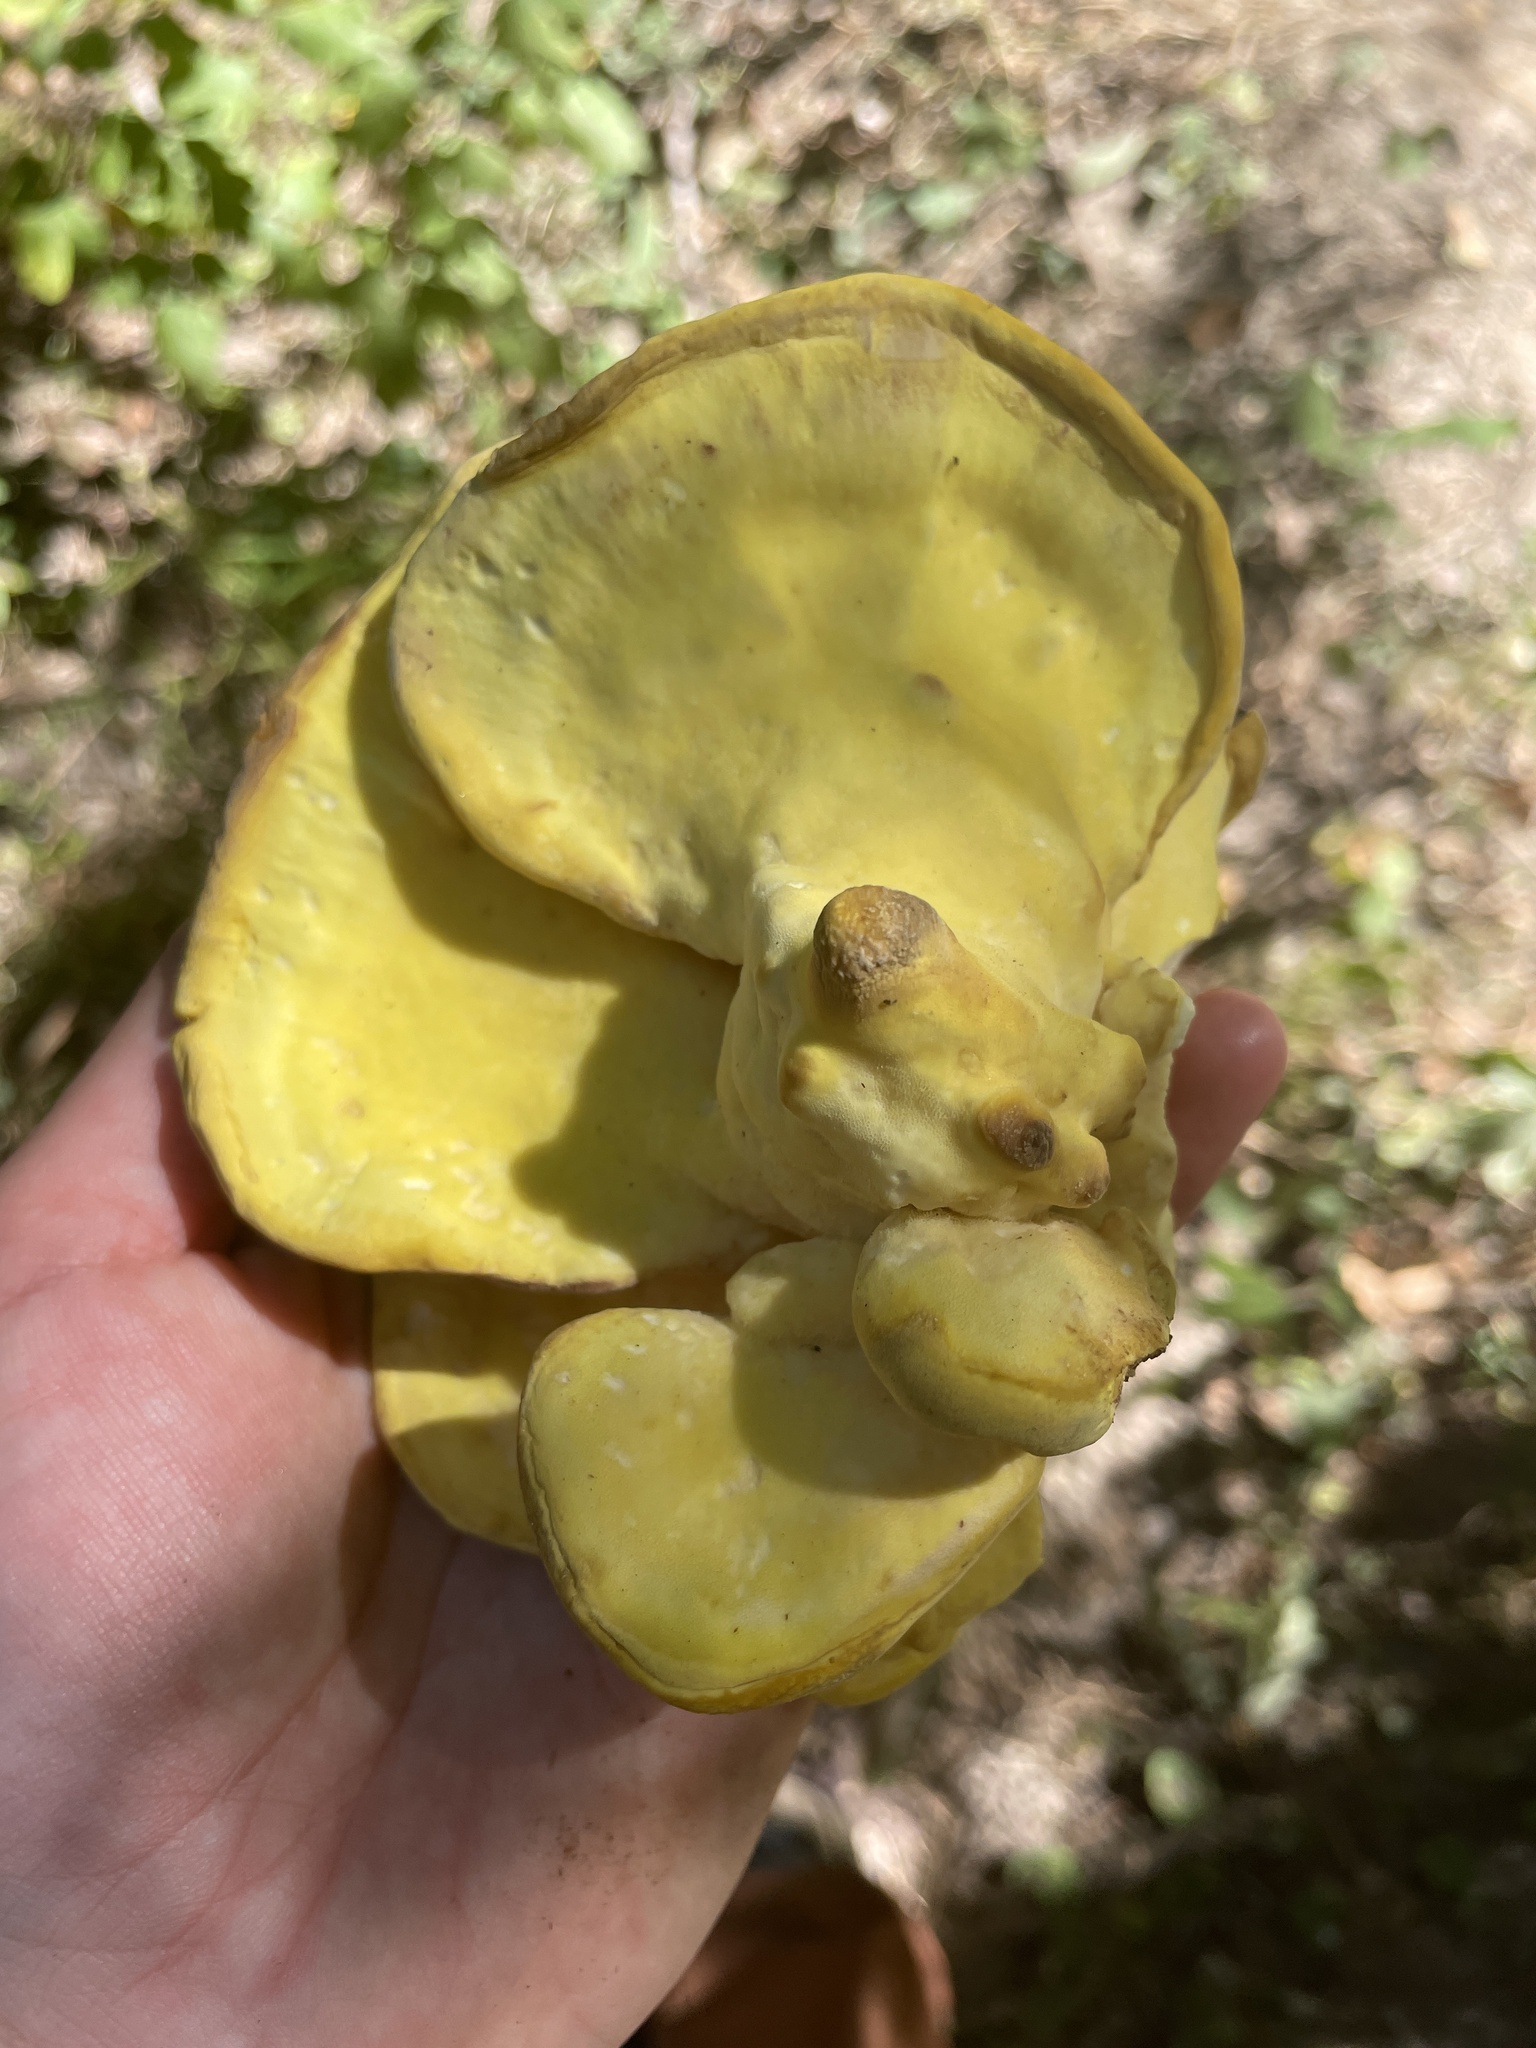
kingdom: Fungi
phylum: Basidiomycota
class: Agaricomycetes
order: Polyporales
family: Laetiporaceae
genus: Laetiporus
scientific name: Laetiporus sulphureus
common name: Chicken of the woods
